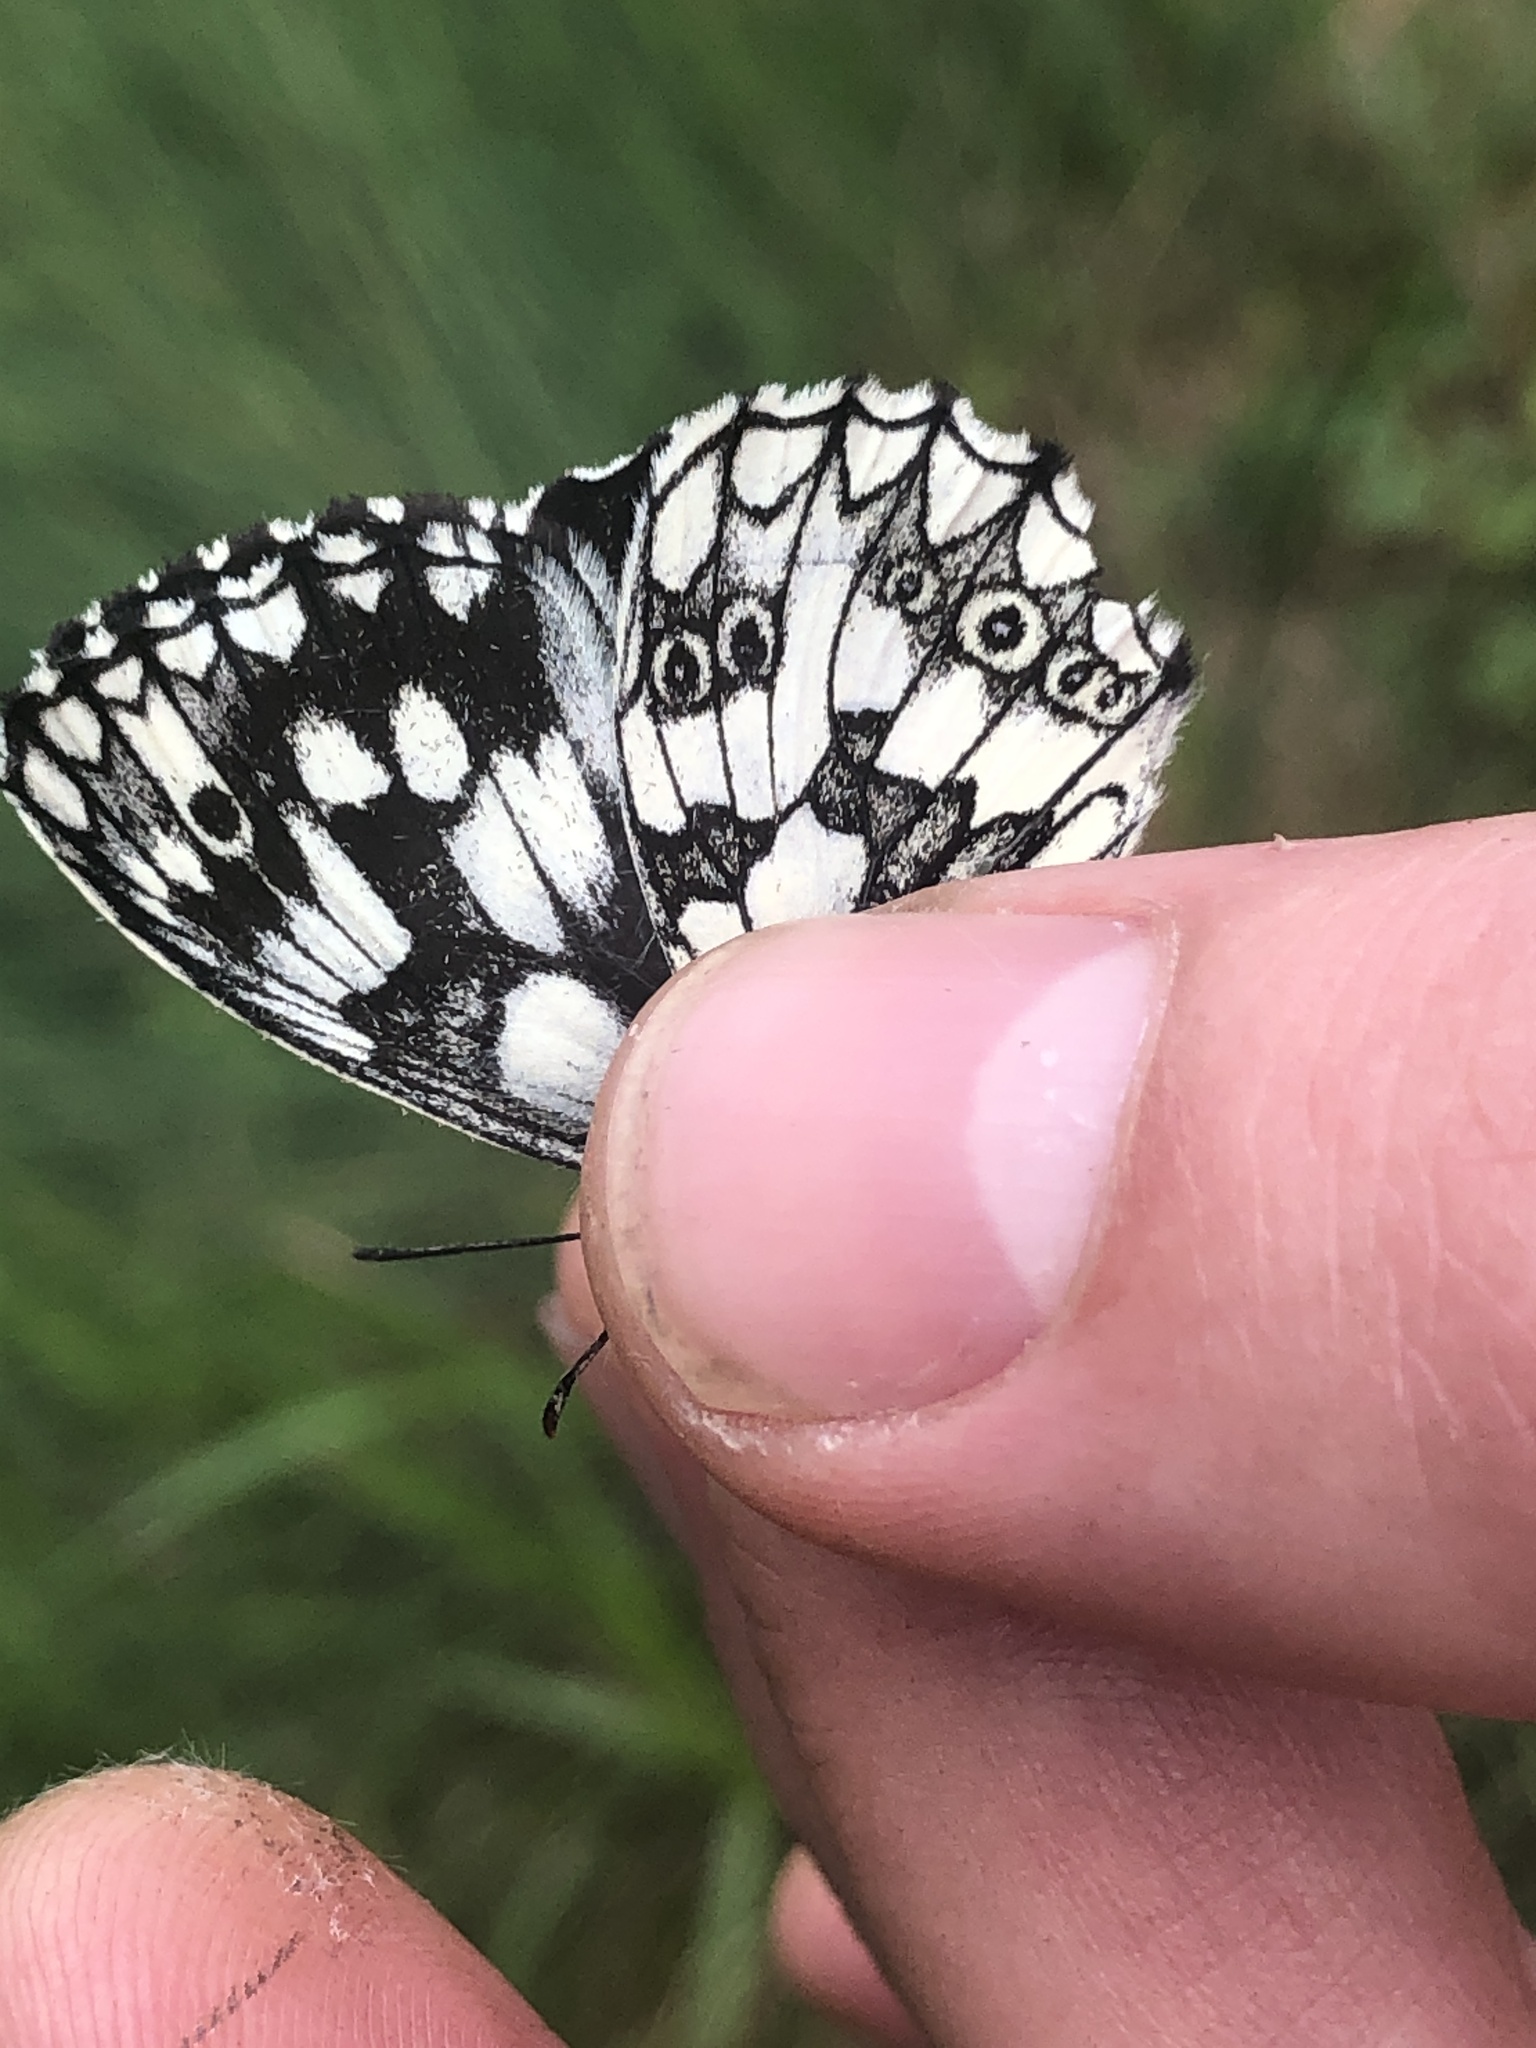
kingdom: Animalia
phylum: Arthropoda
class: Insecta
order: Lepidoptera
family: Nymphalidae
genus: Melanargia
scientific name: Melanargia galathea
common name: Marbled white
